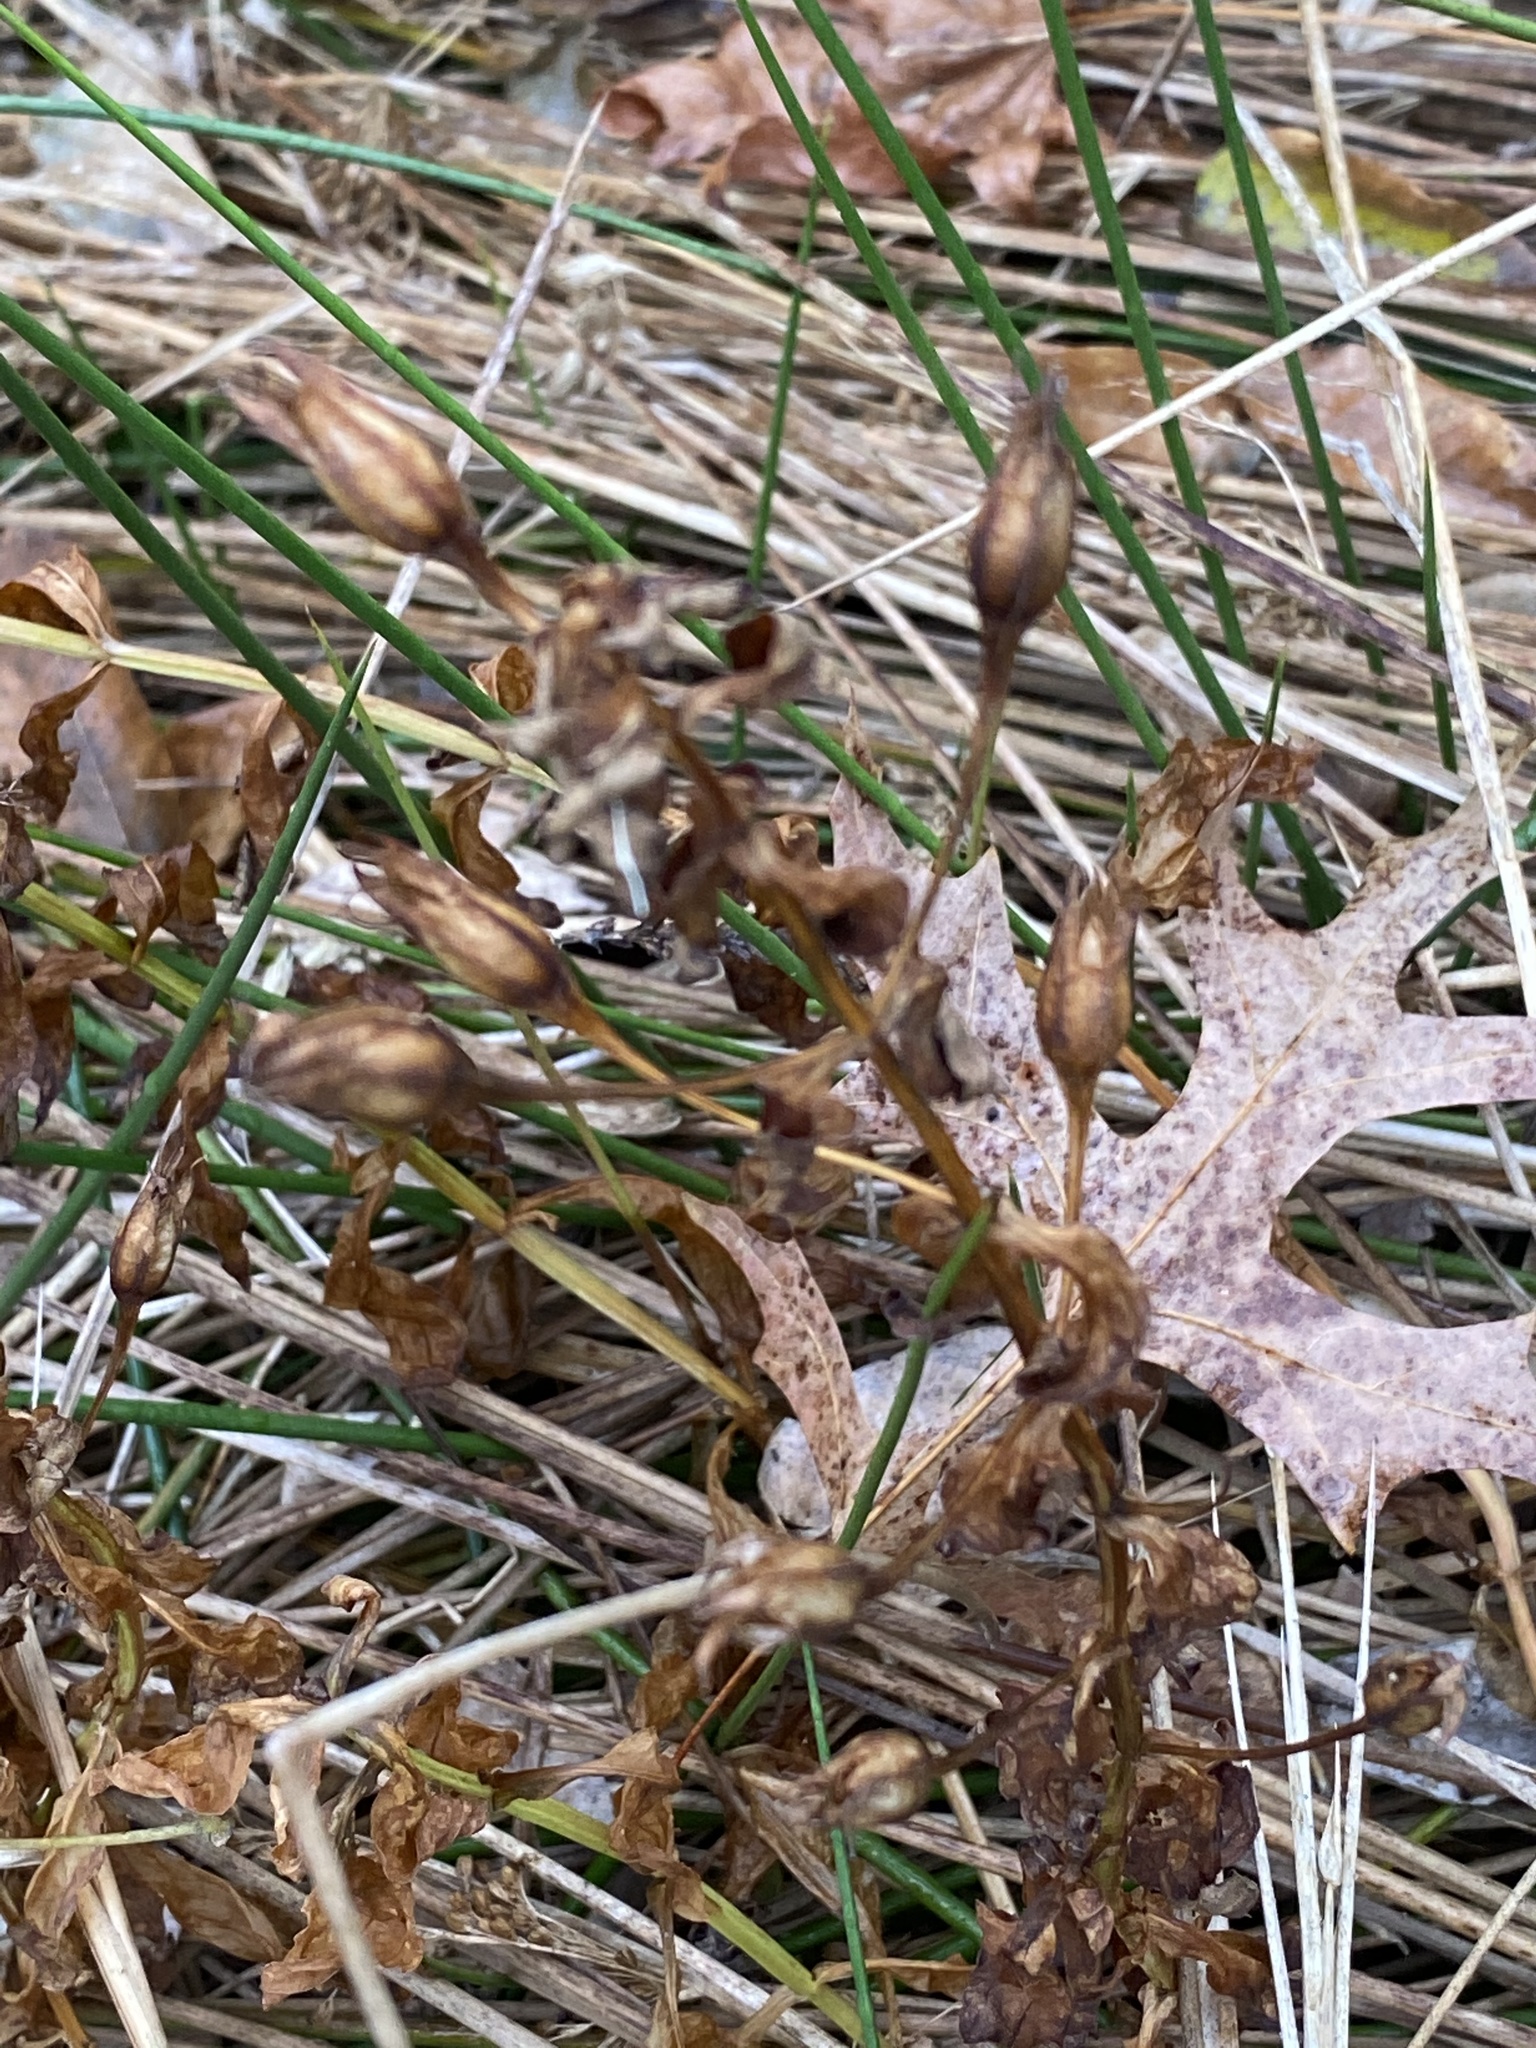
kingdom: Plantae
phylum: Tracheophyta
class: Magnoliopsida
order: Lamiales
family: Phrymaceae
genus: Mimulus
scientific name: Mimulus ringens
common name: Allegheny monkeyflower
